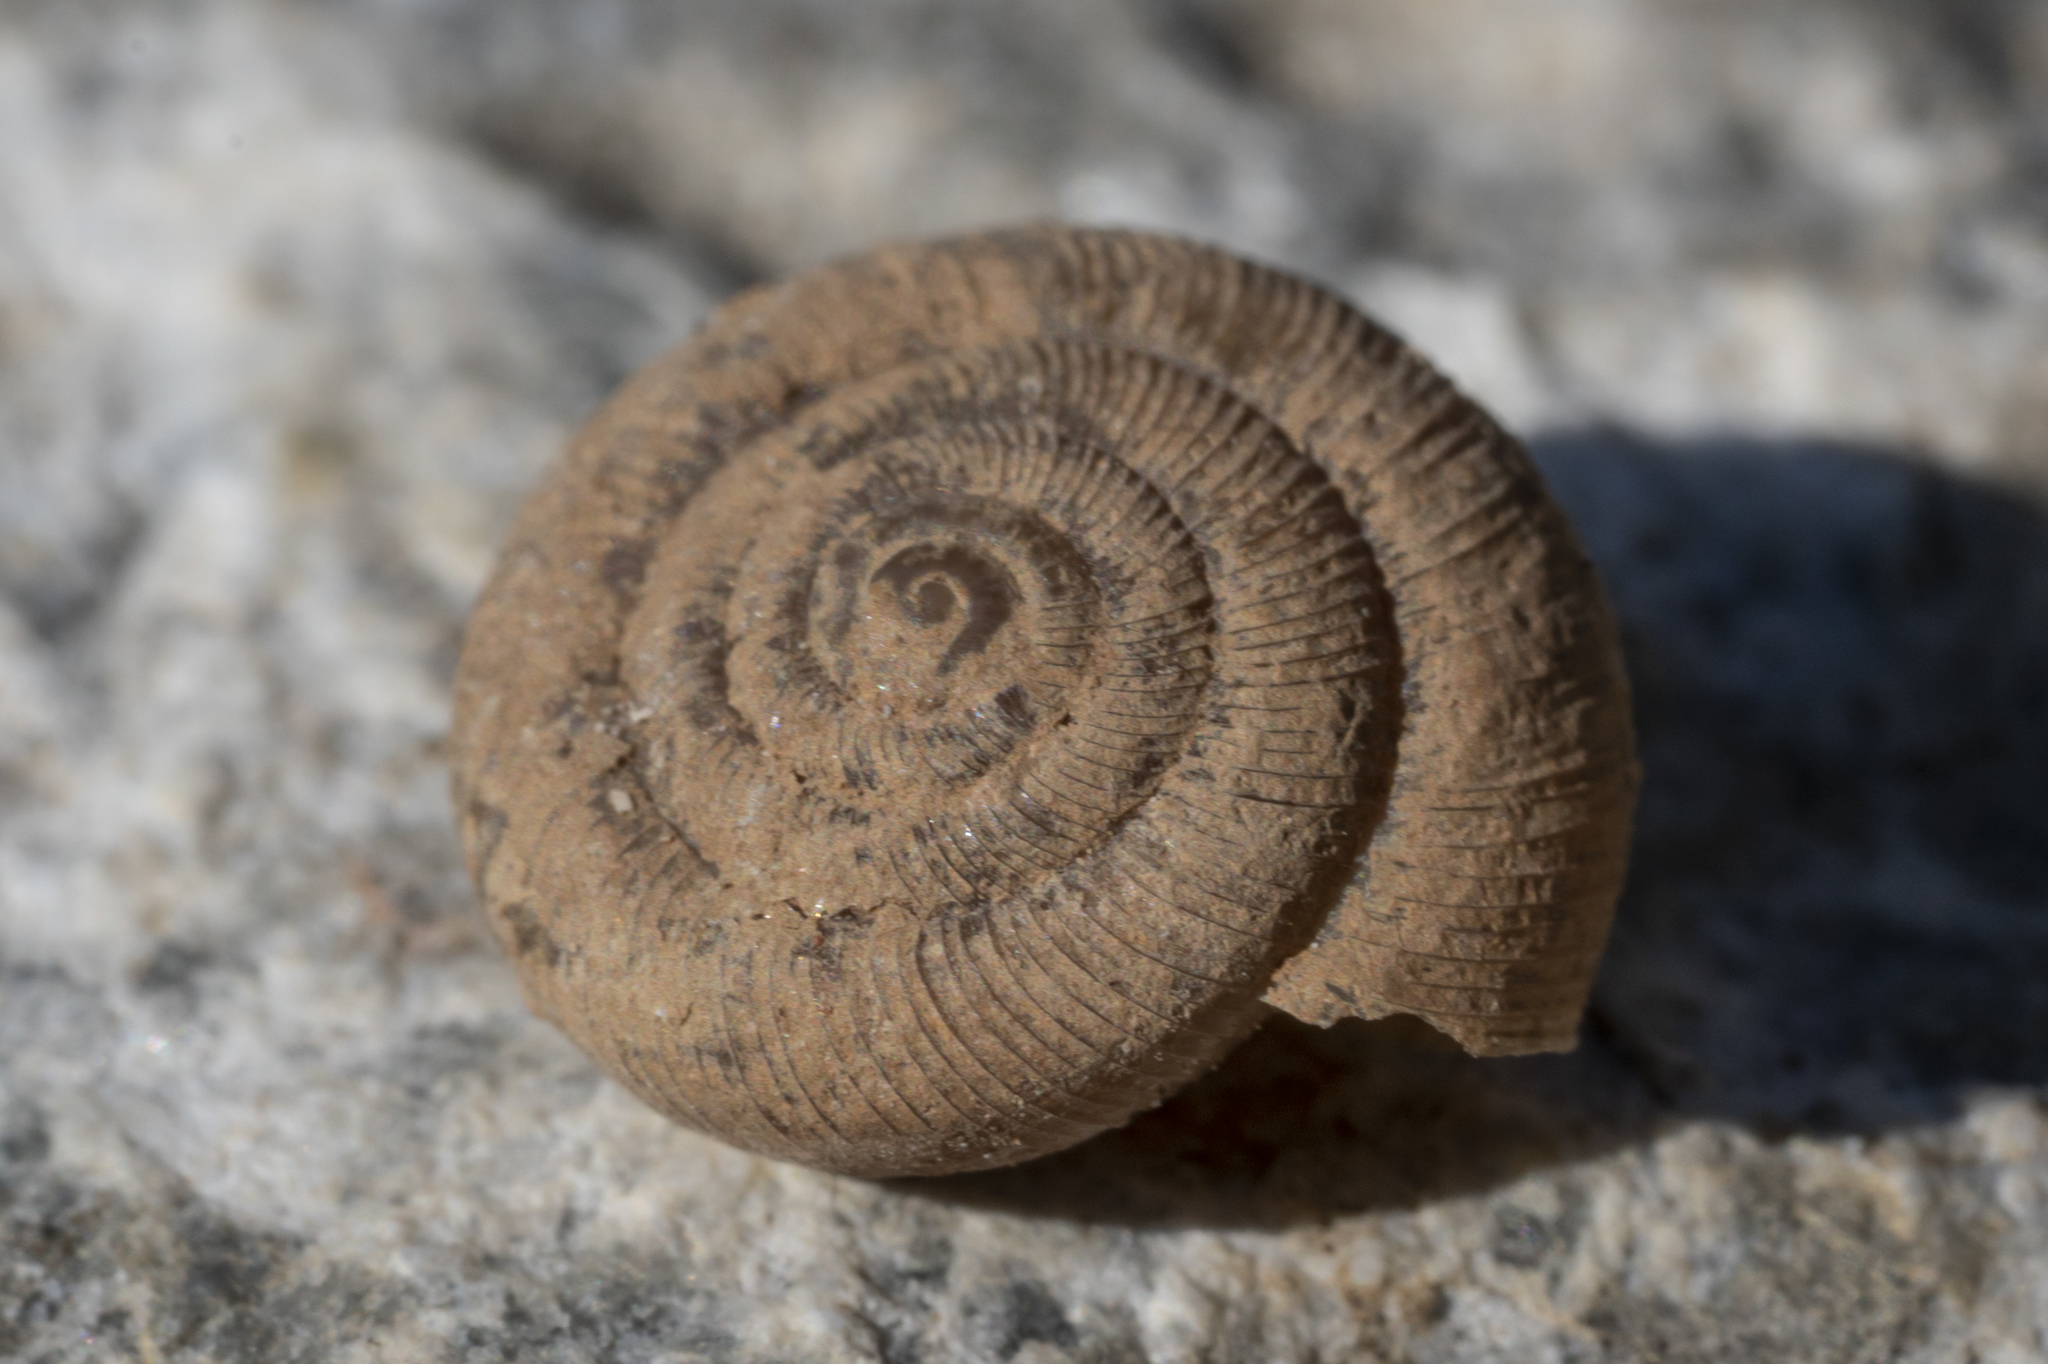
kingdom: Animalia
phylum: Mollusca
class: Gastropoda
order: Stylommatophora
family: Pleurodiscidae
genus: Pleurodiscus
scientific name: Pleurodiscus balmei
